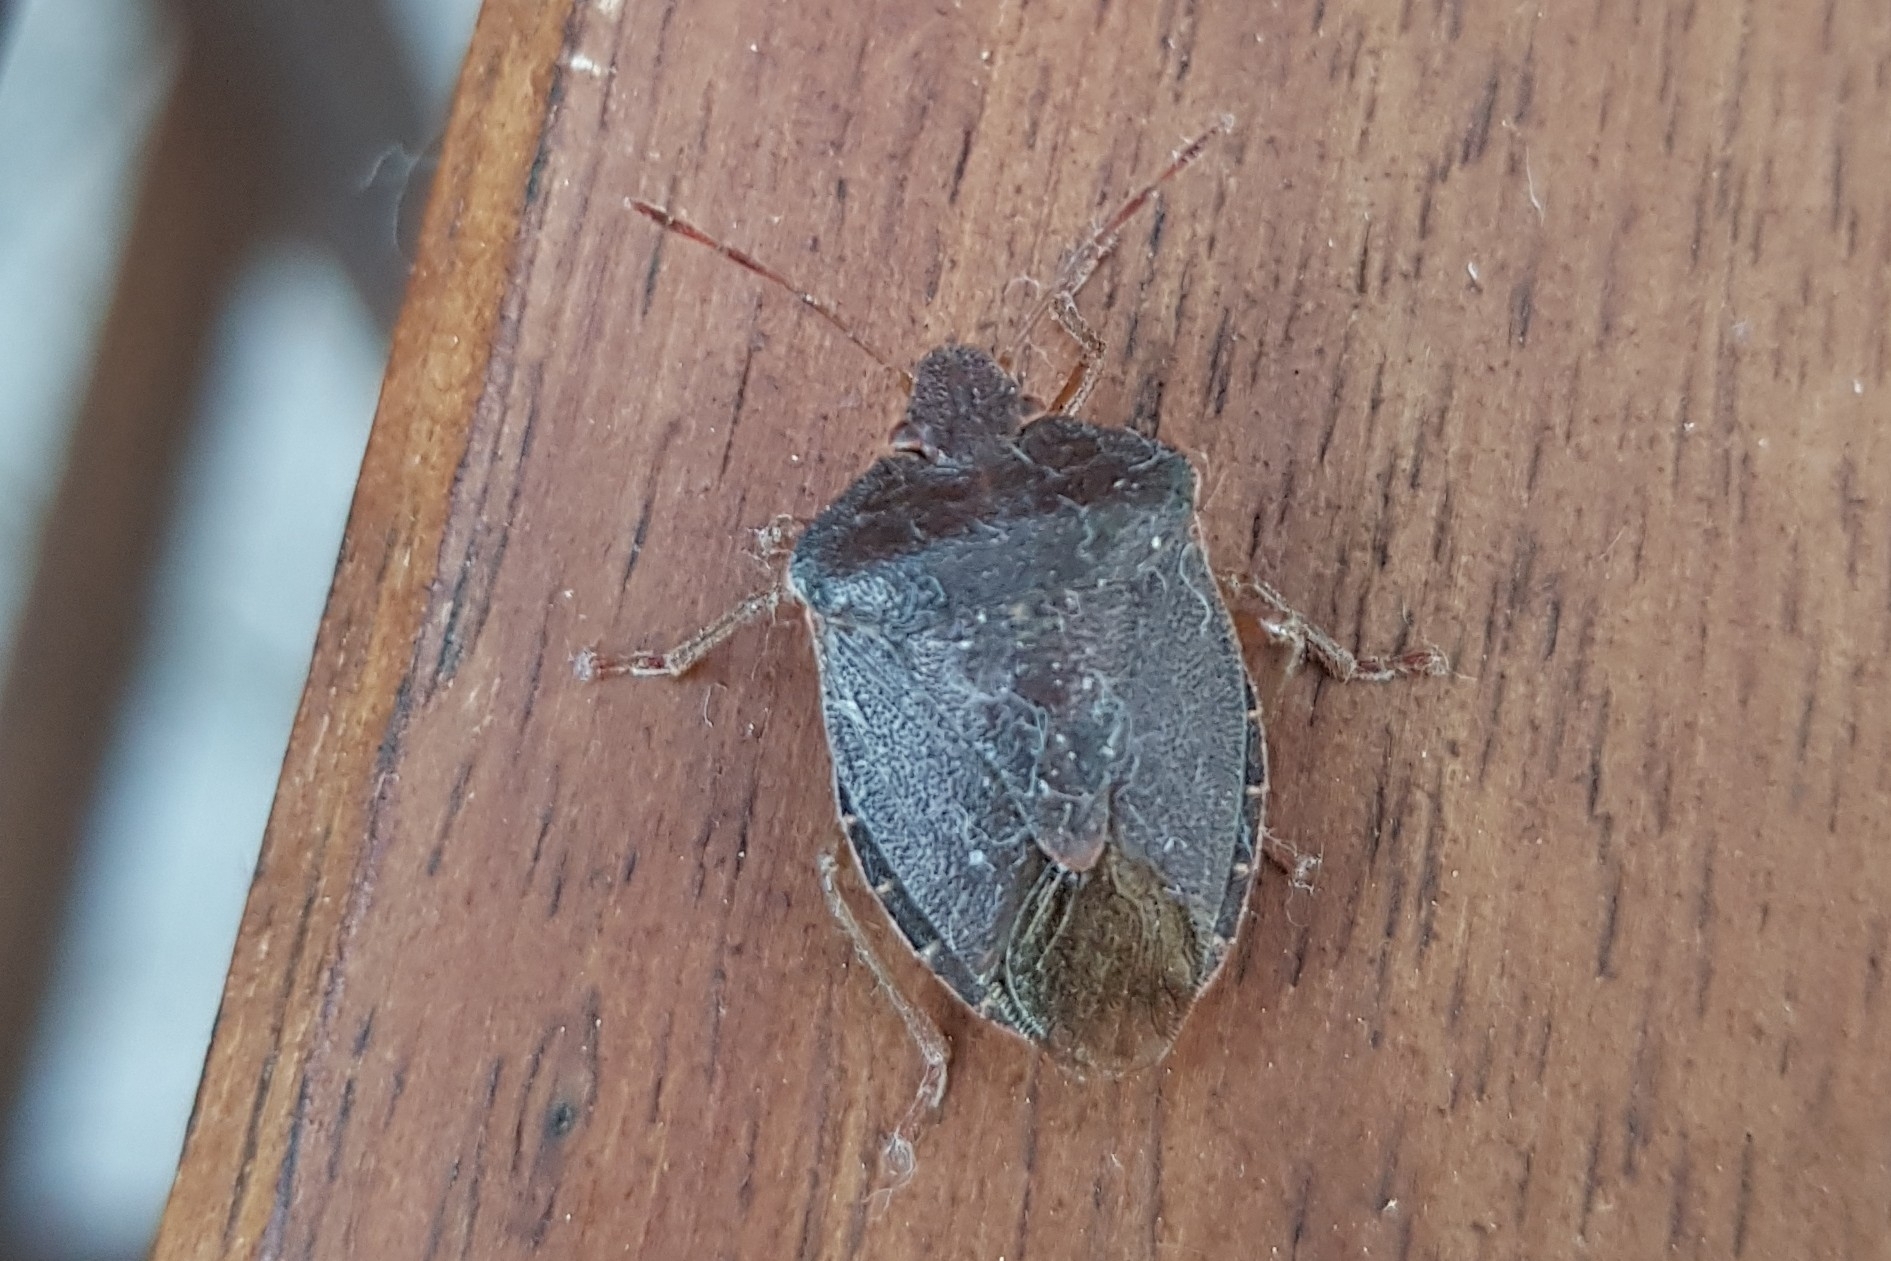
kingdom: Animalia
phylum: Arthropoda
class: Insecta
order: Hemiptera
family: Pentatomidae
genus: Palomena
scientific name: Palomena prasina
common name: Green shieldbug
